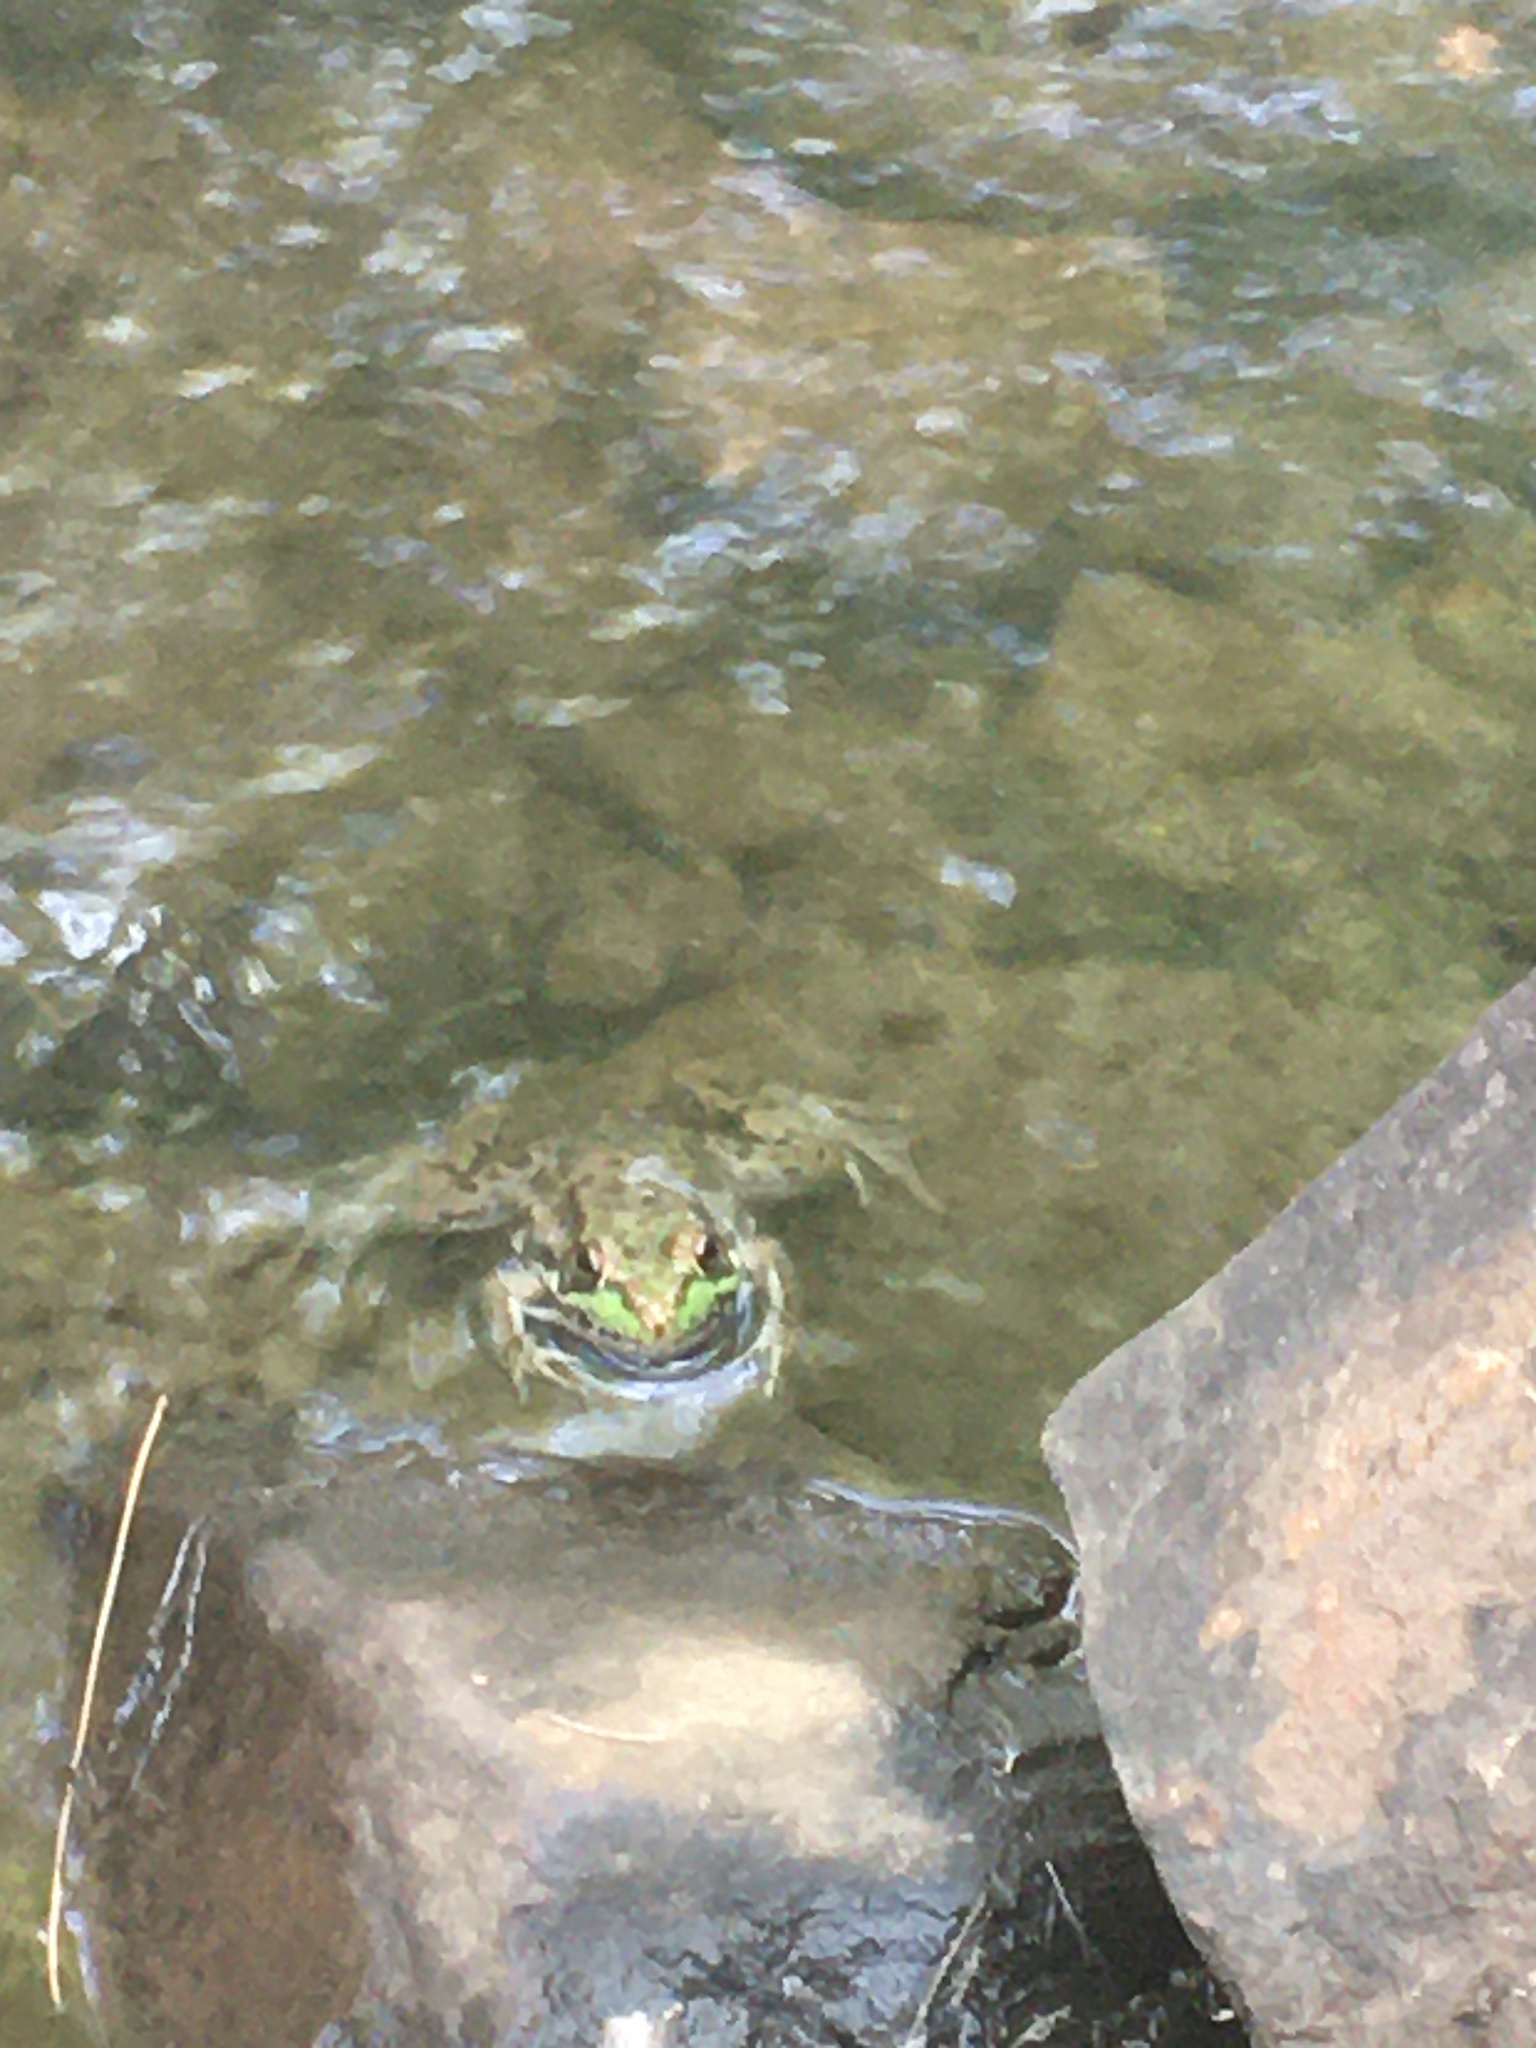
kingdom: Animalia
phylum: Chordata
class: Amphibia
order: Anura
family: Ranidae
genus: Lithobates
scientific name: Lithobates clamitans
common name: Green frog
